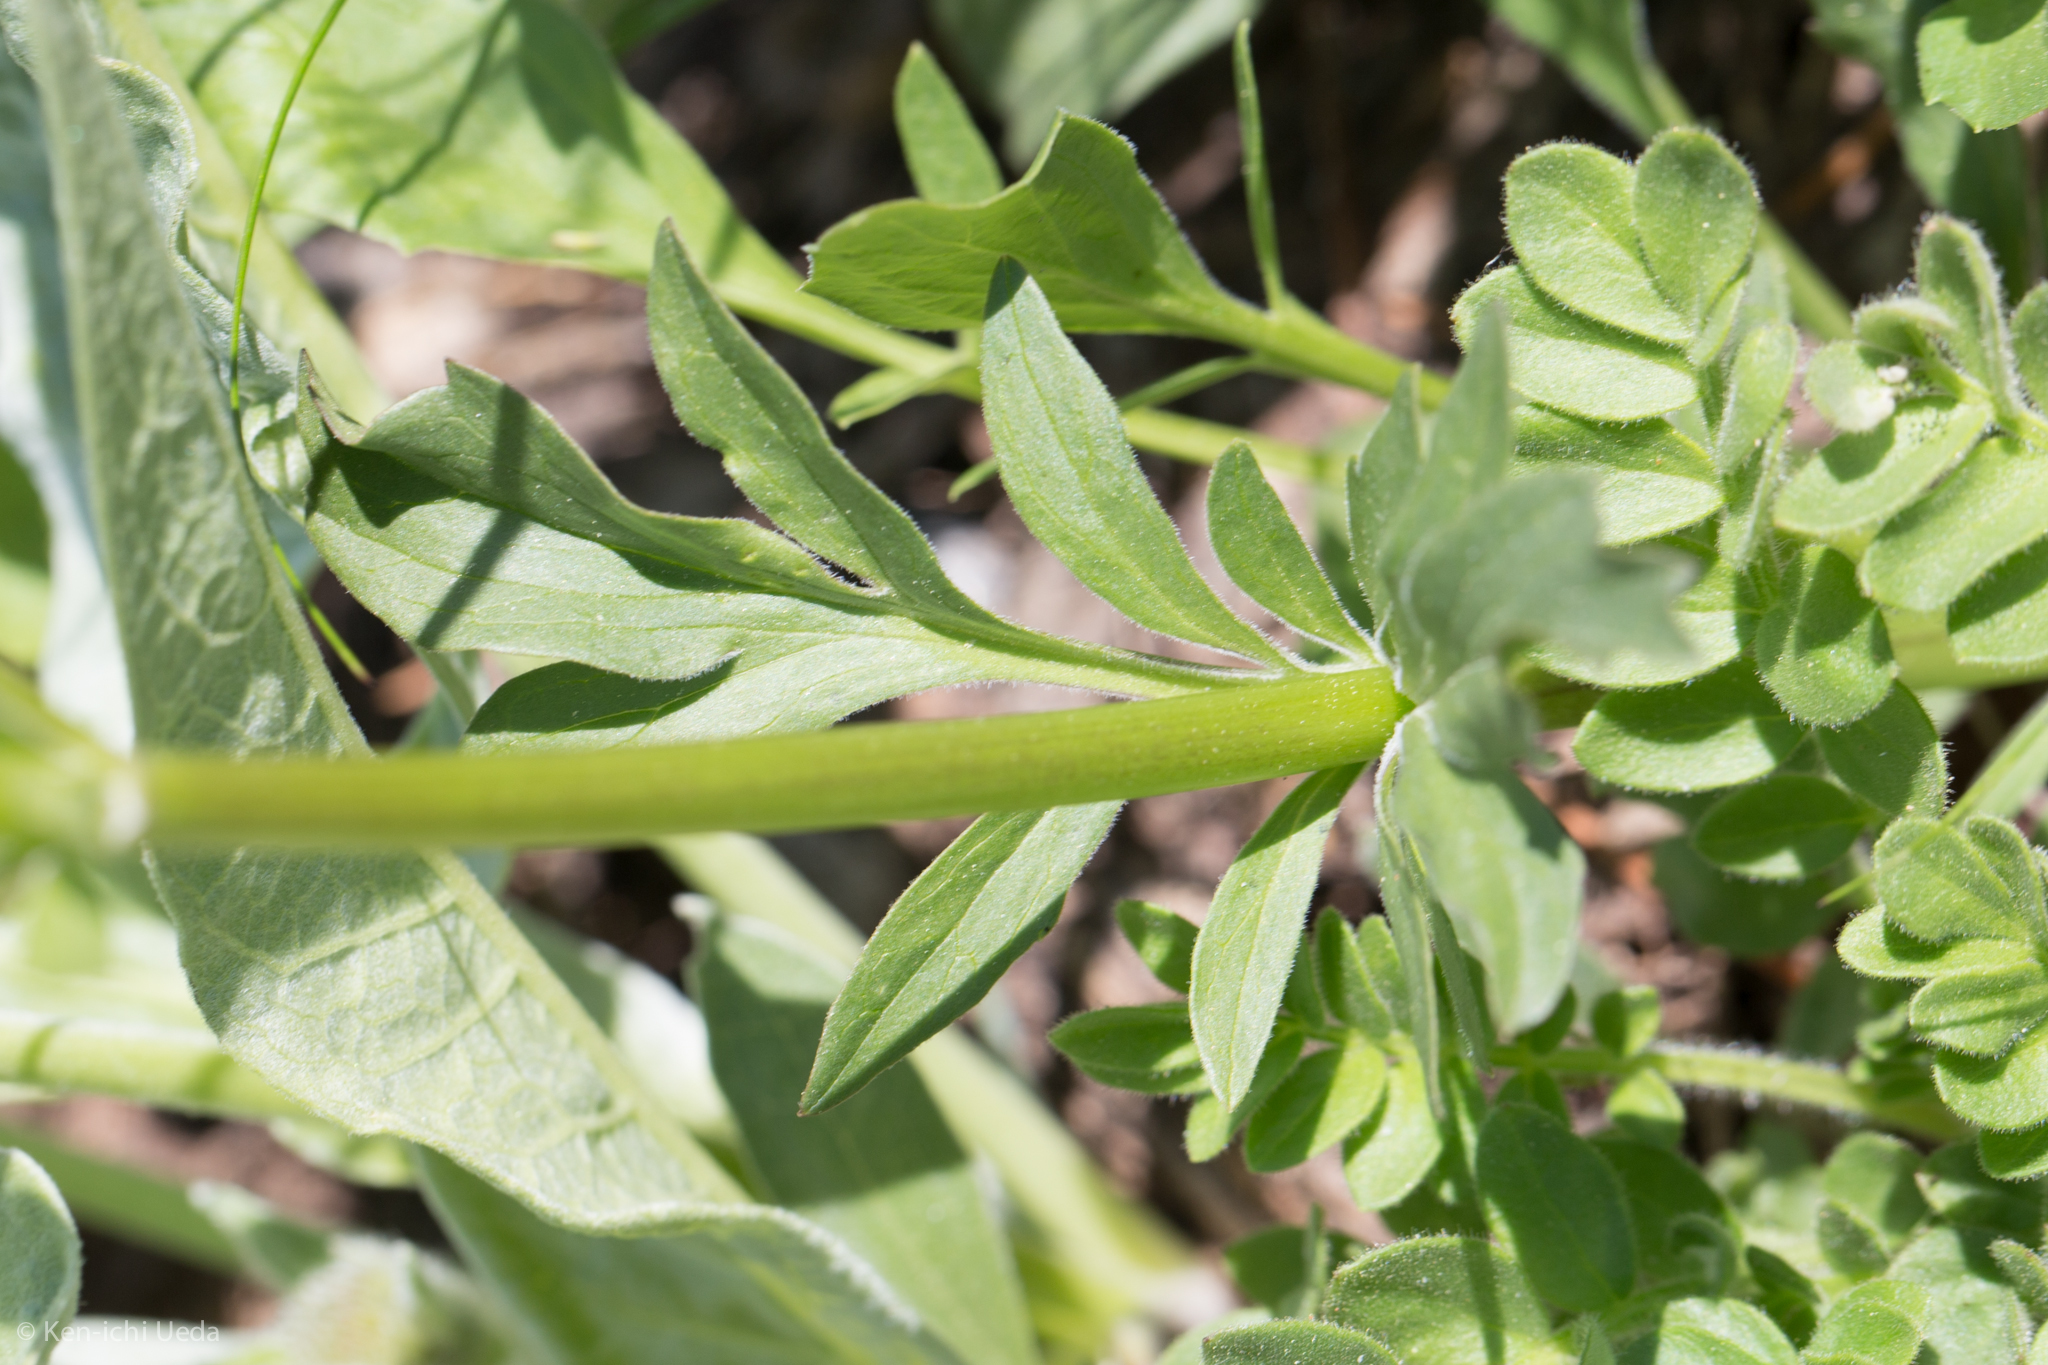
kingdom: Plantae
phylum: Tracheophyta
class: Magnoliopsida
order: Dipsacales
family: Caprifoliaceae
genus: Valeriana
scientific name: Valeriana californica
